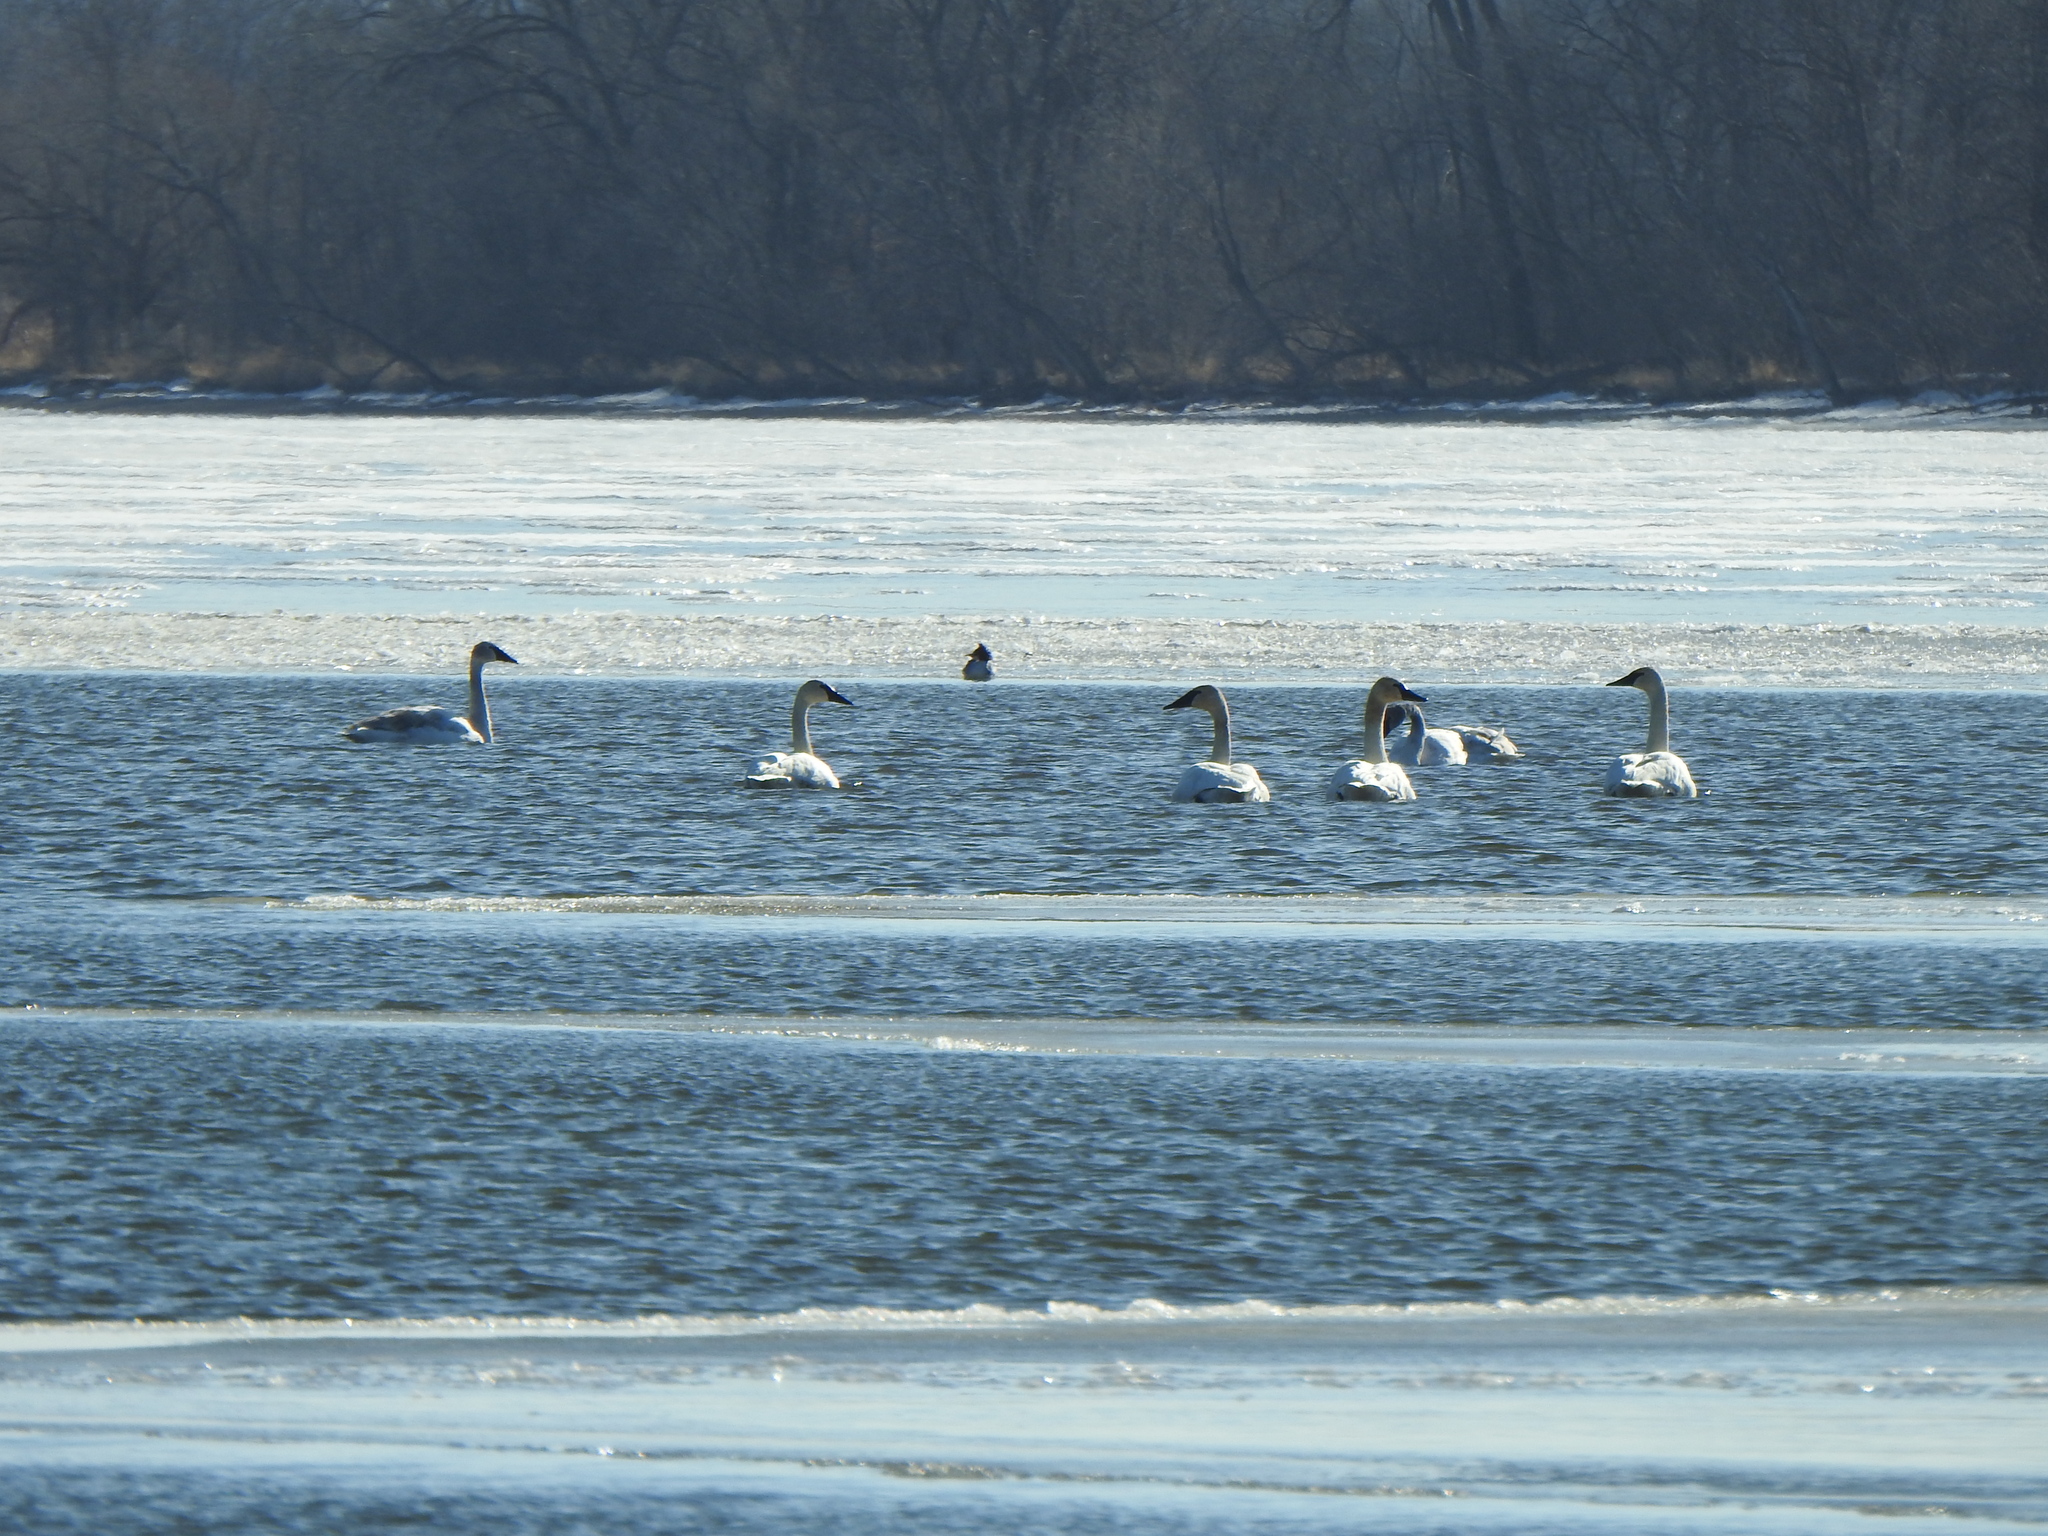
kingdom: Animalia
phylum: Chordata
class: Aves
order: Anseriformes
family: Anatidae
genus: Cygnus
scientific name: Cygnus buccinator
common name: Trumpeter swan
